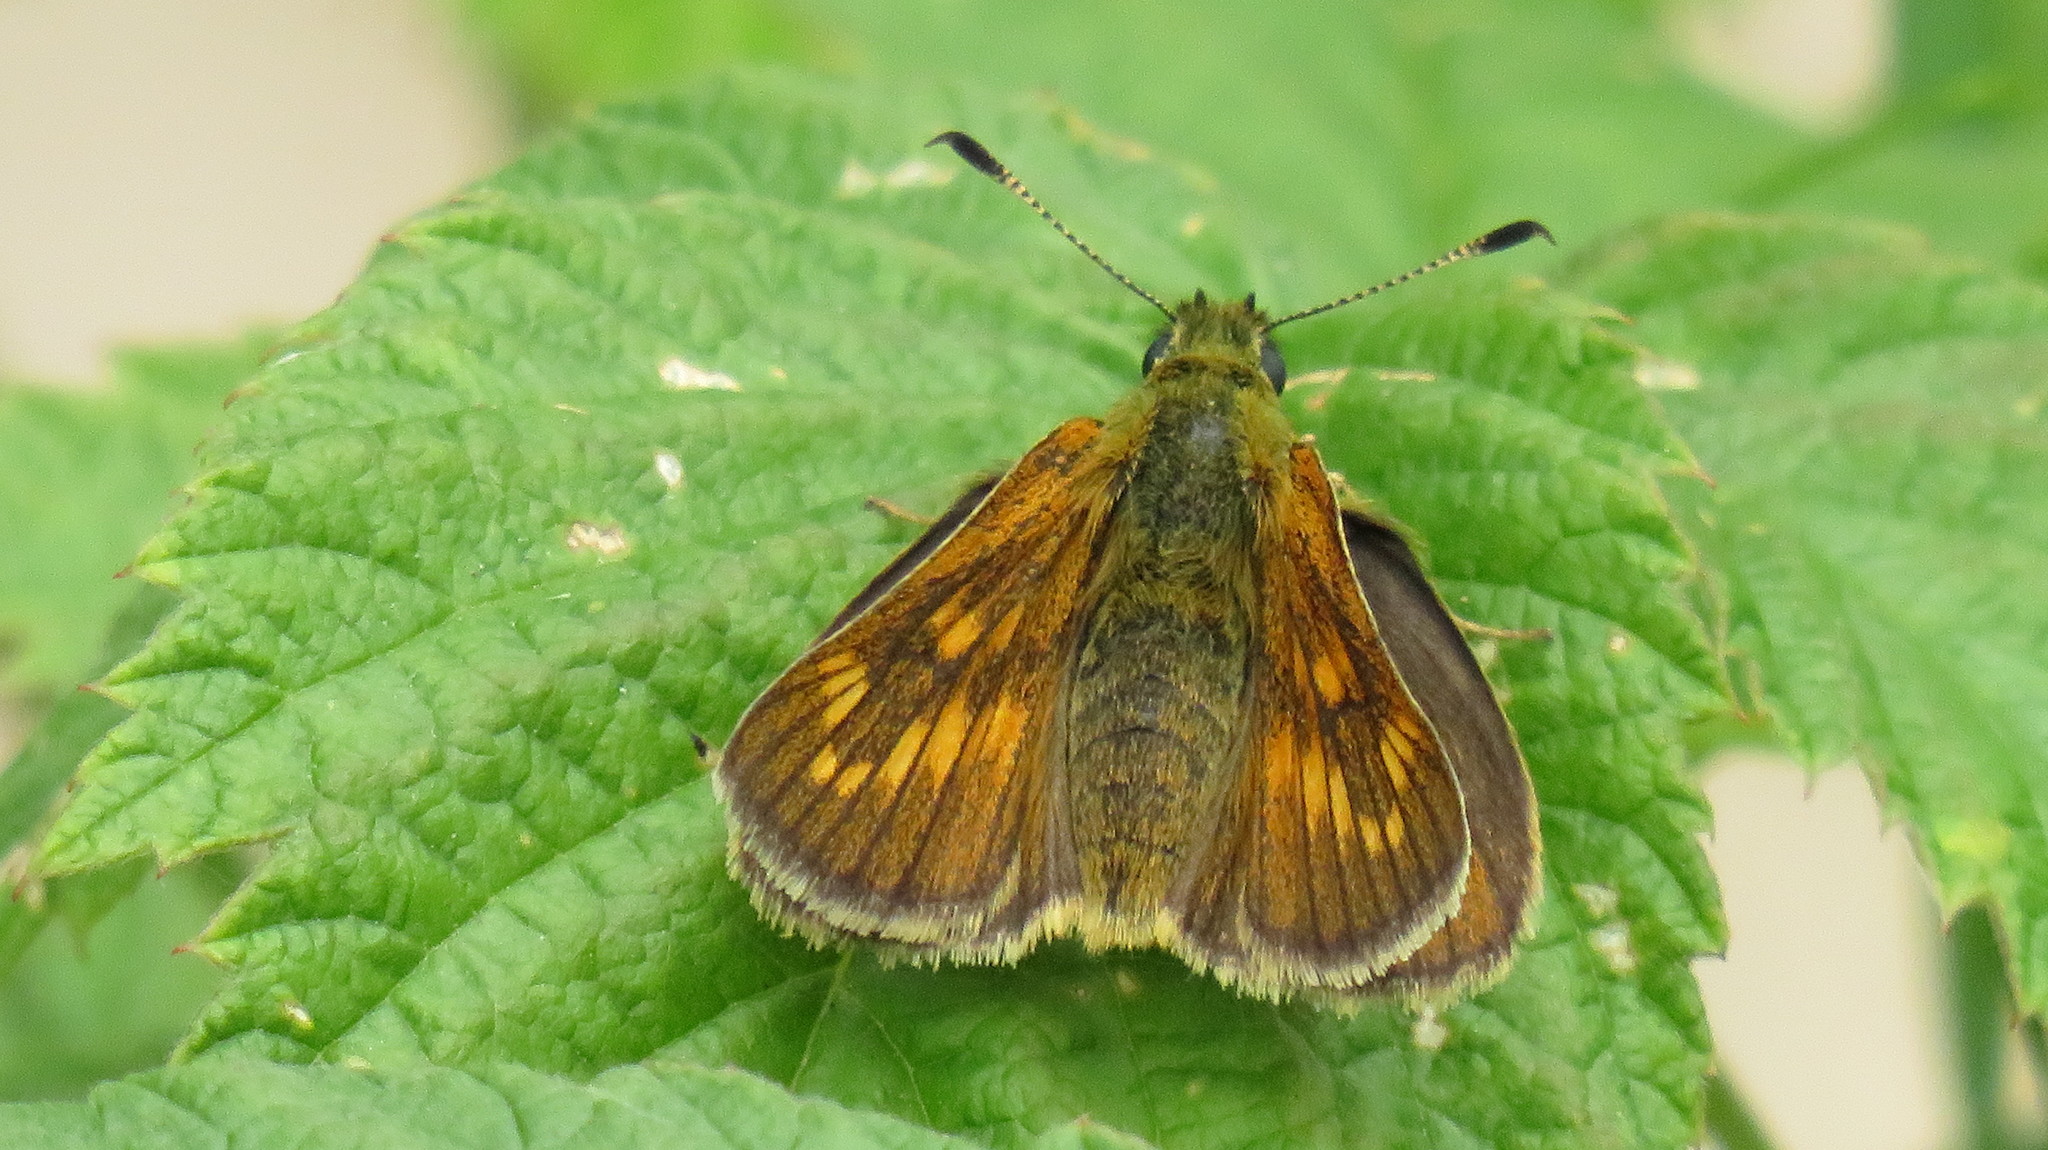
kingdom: Animalia
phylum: Arthropoda
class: Insecta
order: Lepidoptera
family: Hesperiidae
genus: Ochlodes
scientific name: Ochlodes venata
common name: Large skipper
